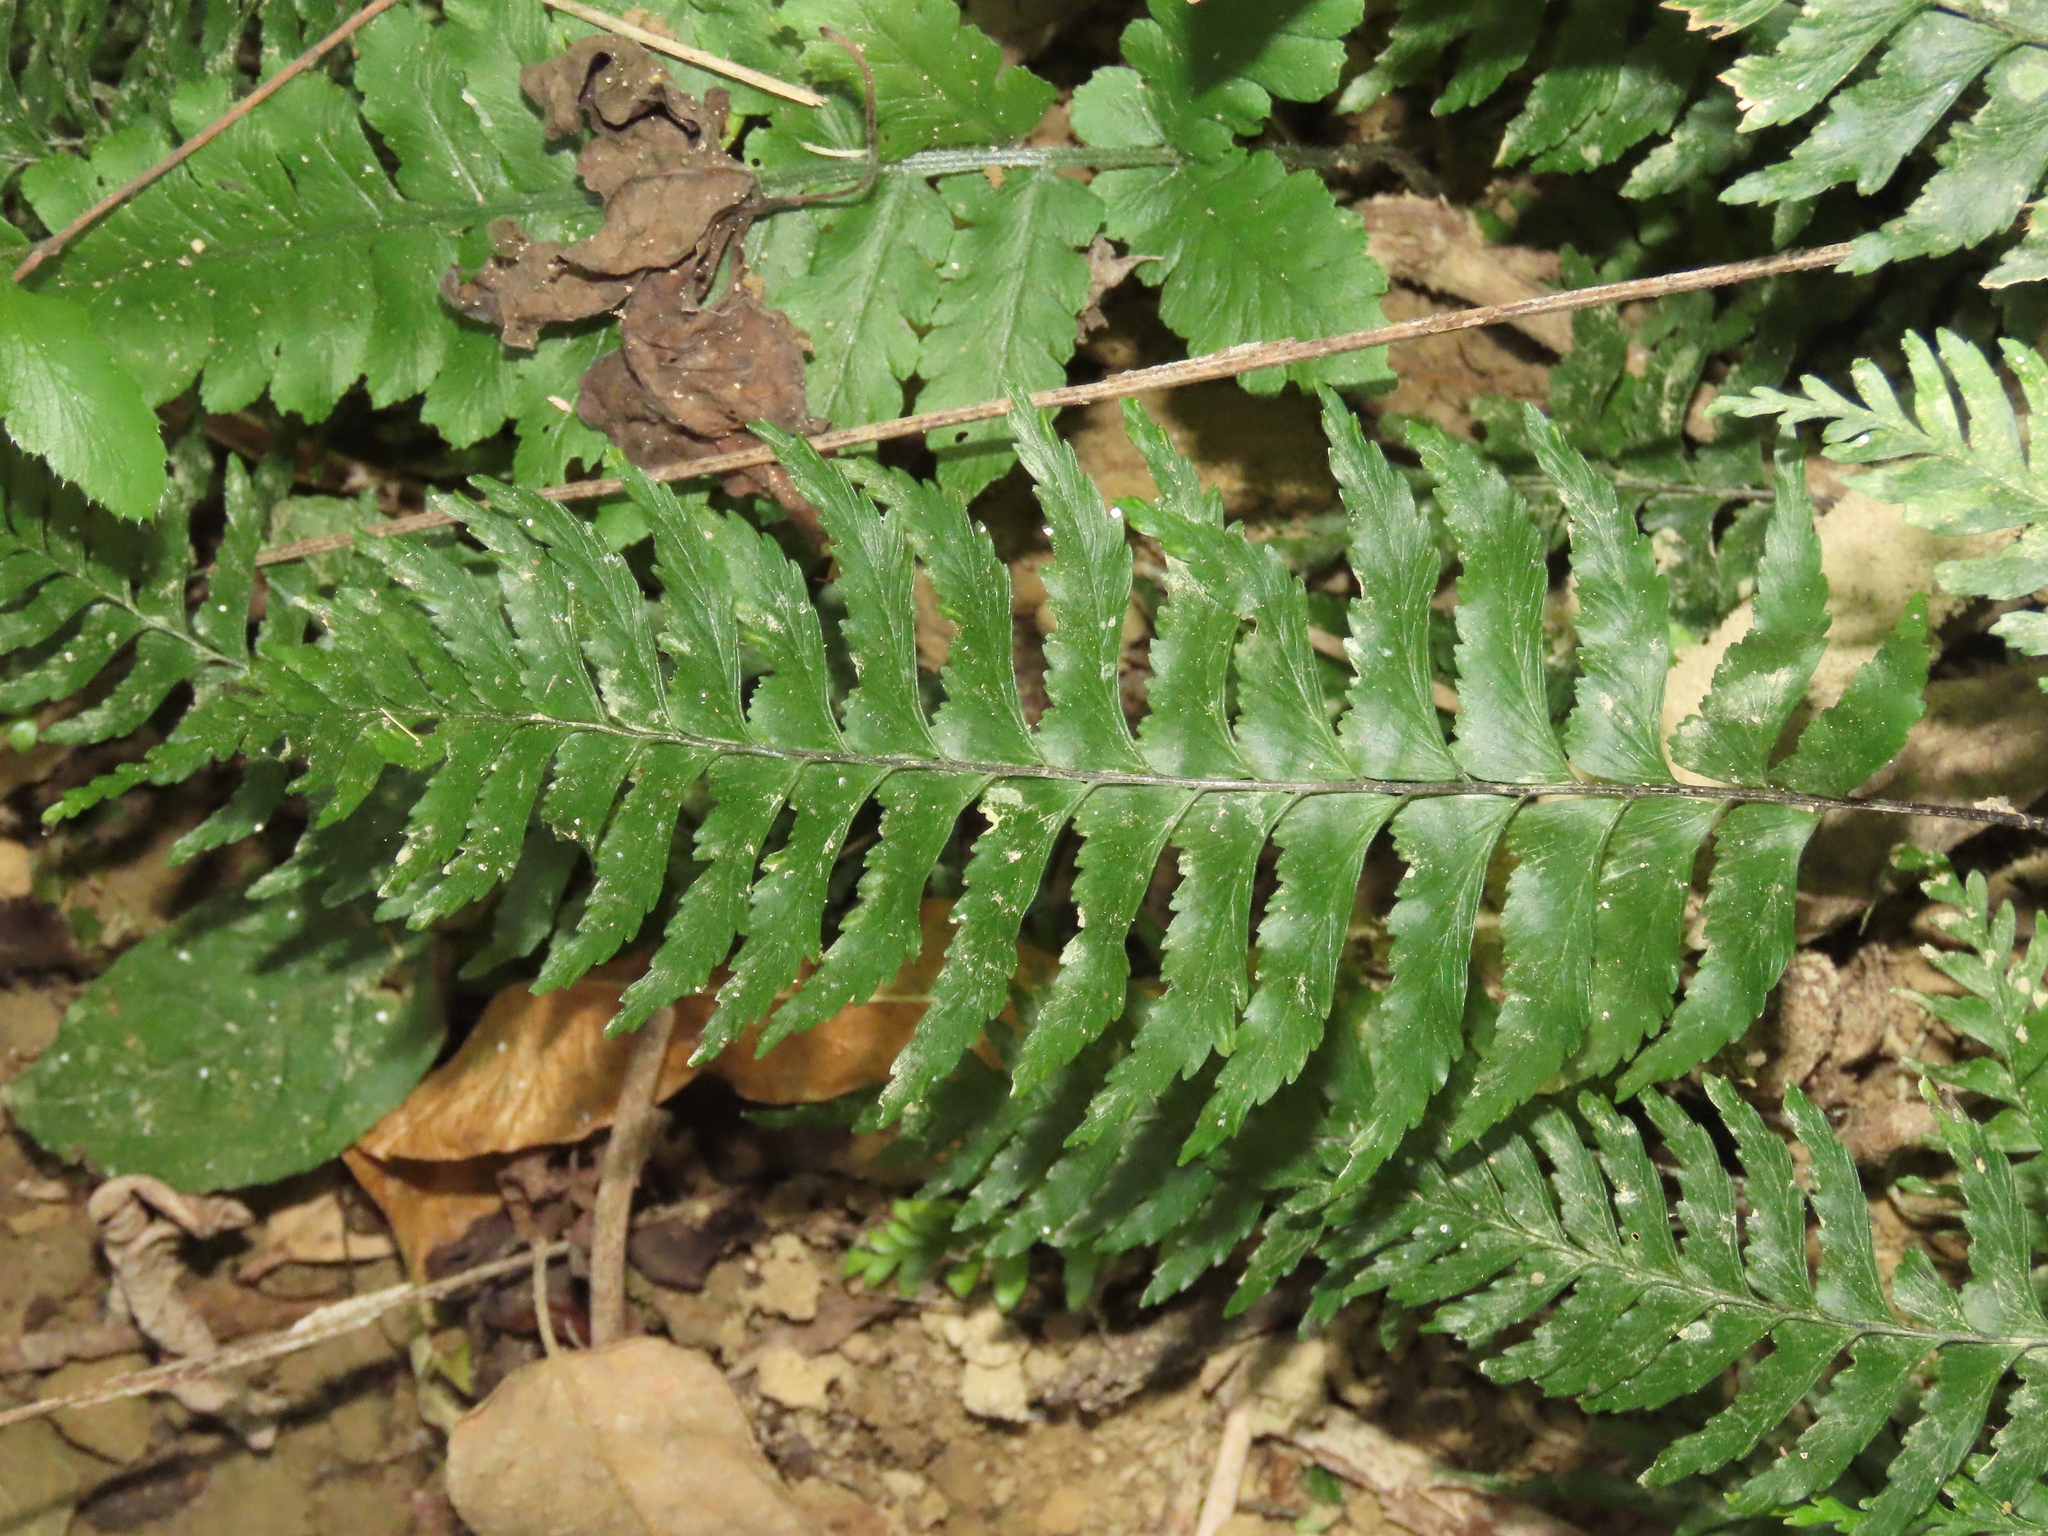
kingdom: Plantae
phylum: Tracheophyta
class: Polypodiopsida
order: Polypodiales
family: Aspleniaceae
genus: Hymenasplenium
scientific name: Hymenasplenium pubirhizoma
